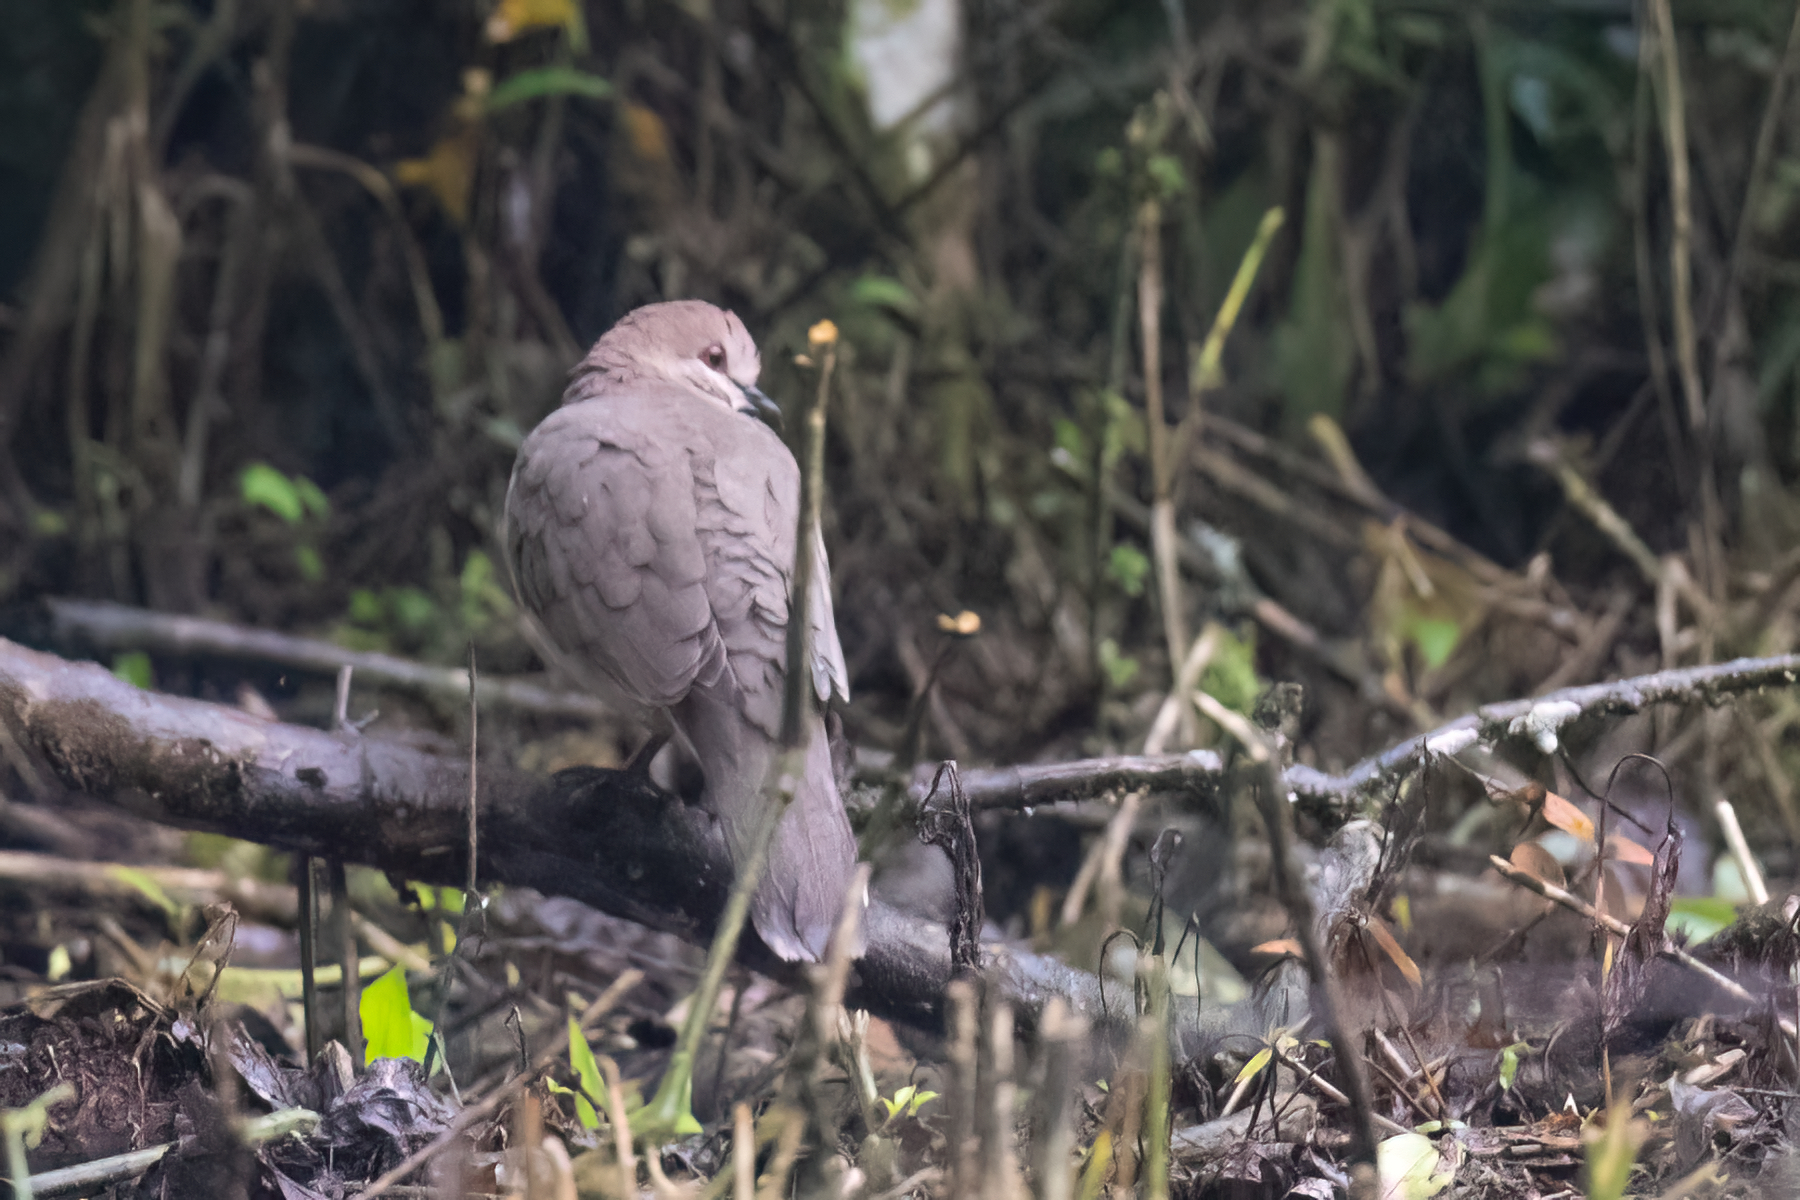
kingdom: Animalia
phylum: Chordata
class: Aves
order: Columbiformes
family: Columbidae
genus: Leptotila
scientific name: Leptotila verreauxi
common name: White-tipped dove
